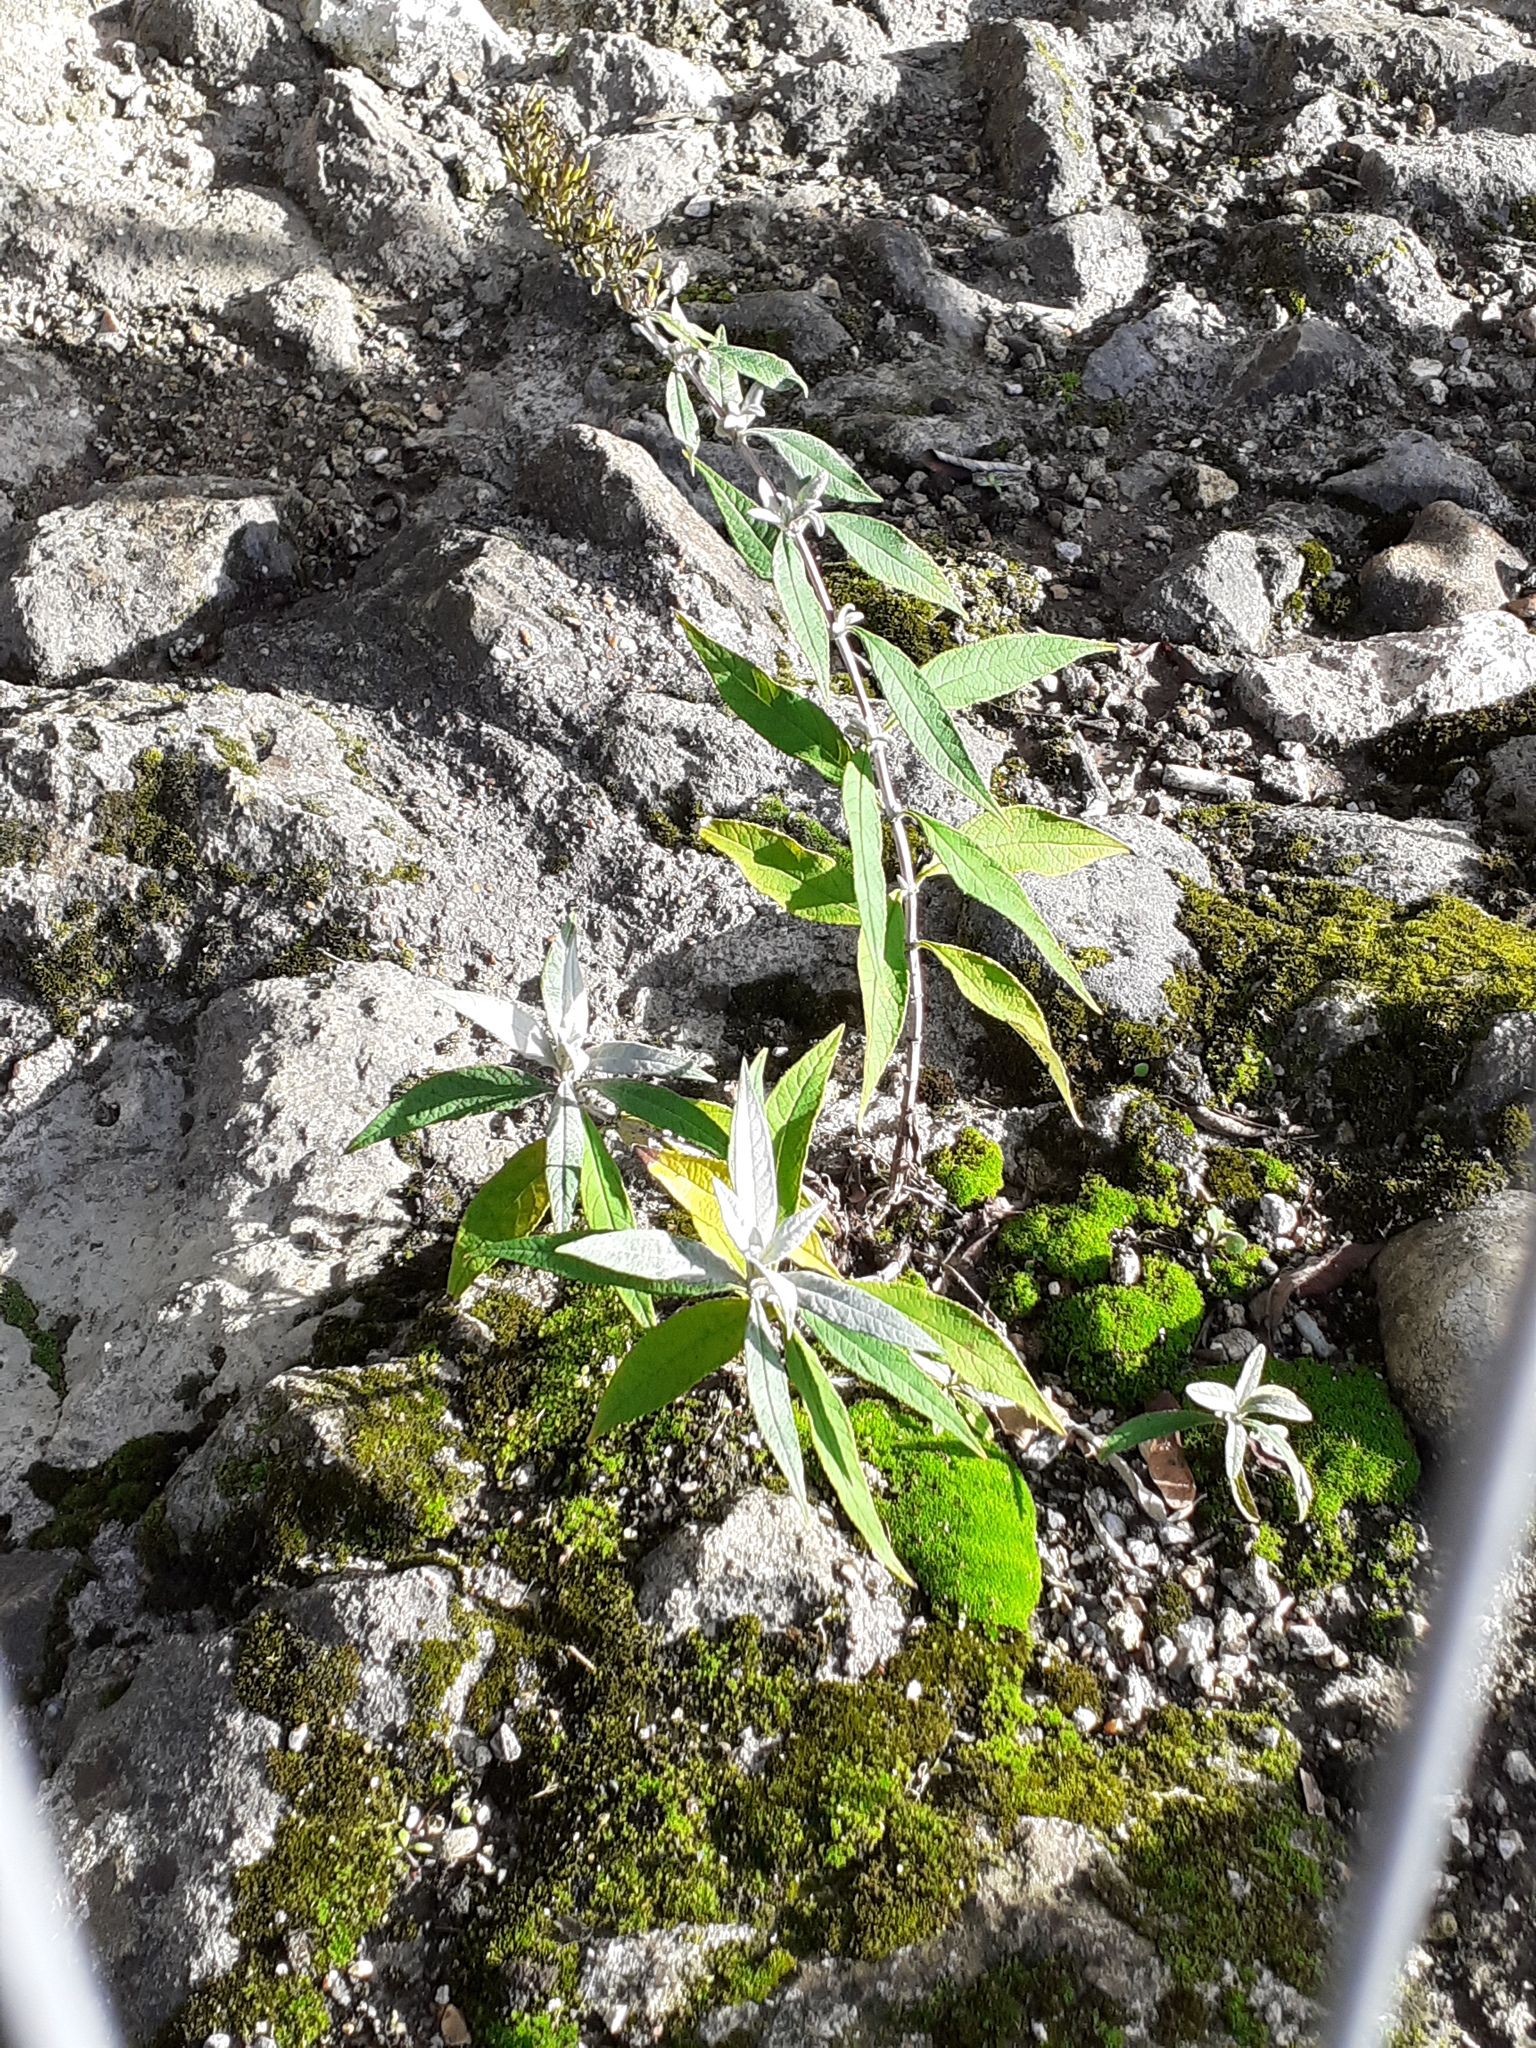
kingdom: Plantae
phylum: Tracheophyta
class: Magnoliopsida
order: Lamiales
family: Scrophulariaceae
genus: Buddleja
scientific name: Buddleja davidii
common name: Butterfly-bush
